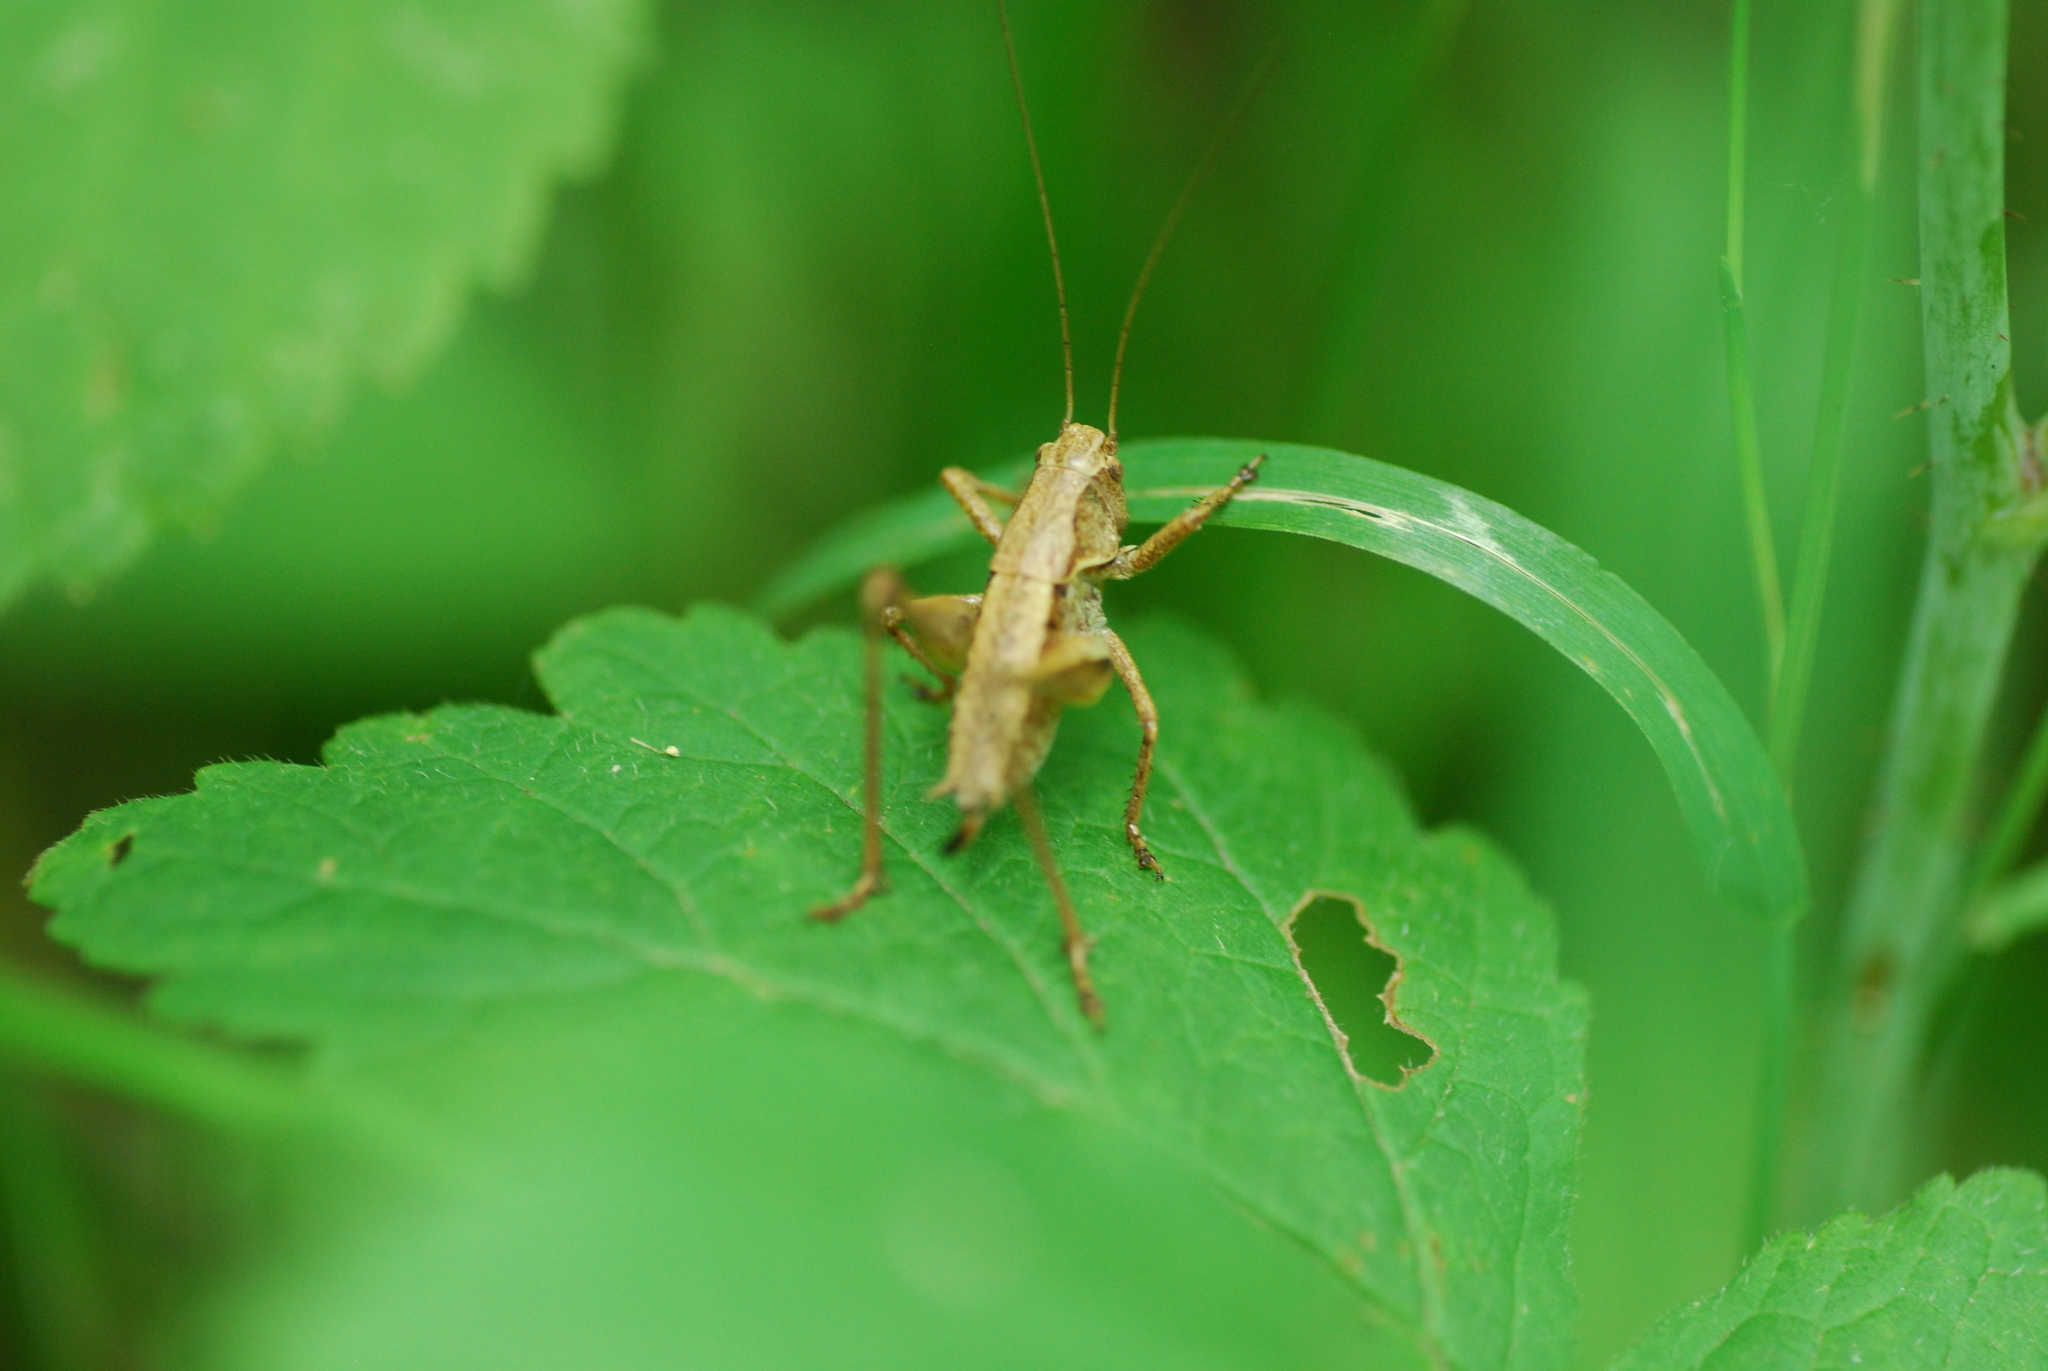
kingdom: Animalia
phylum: Arthropoda
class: Insecta
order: Orthoptera
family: Tettigoniidae
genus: Pholidoptera
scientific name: Pholidoptera griseoaptera
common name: Dark bush-cricket
